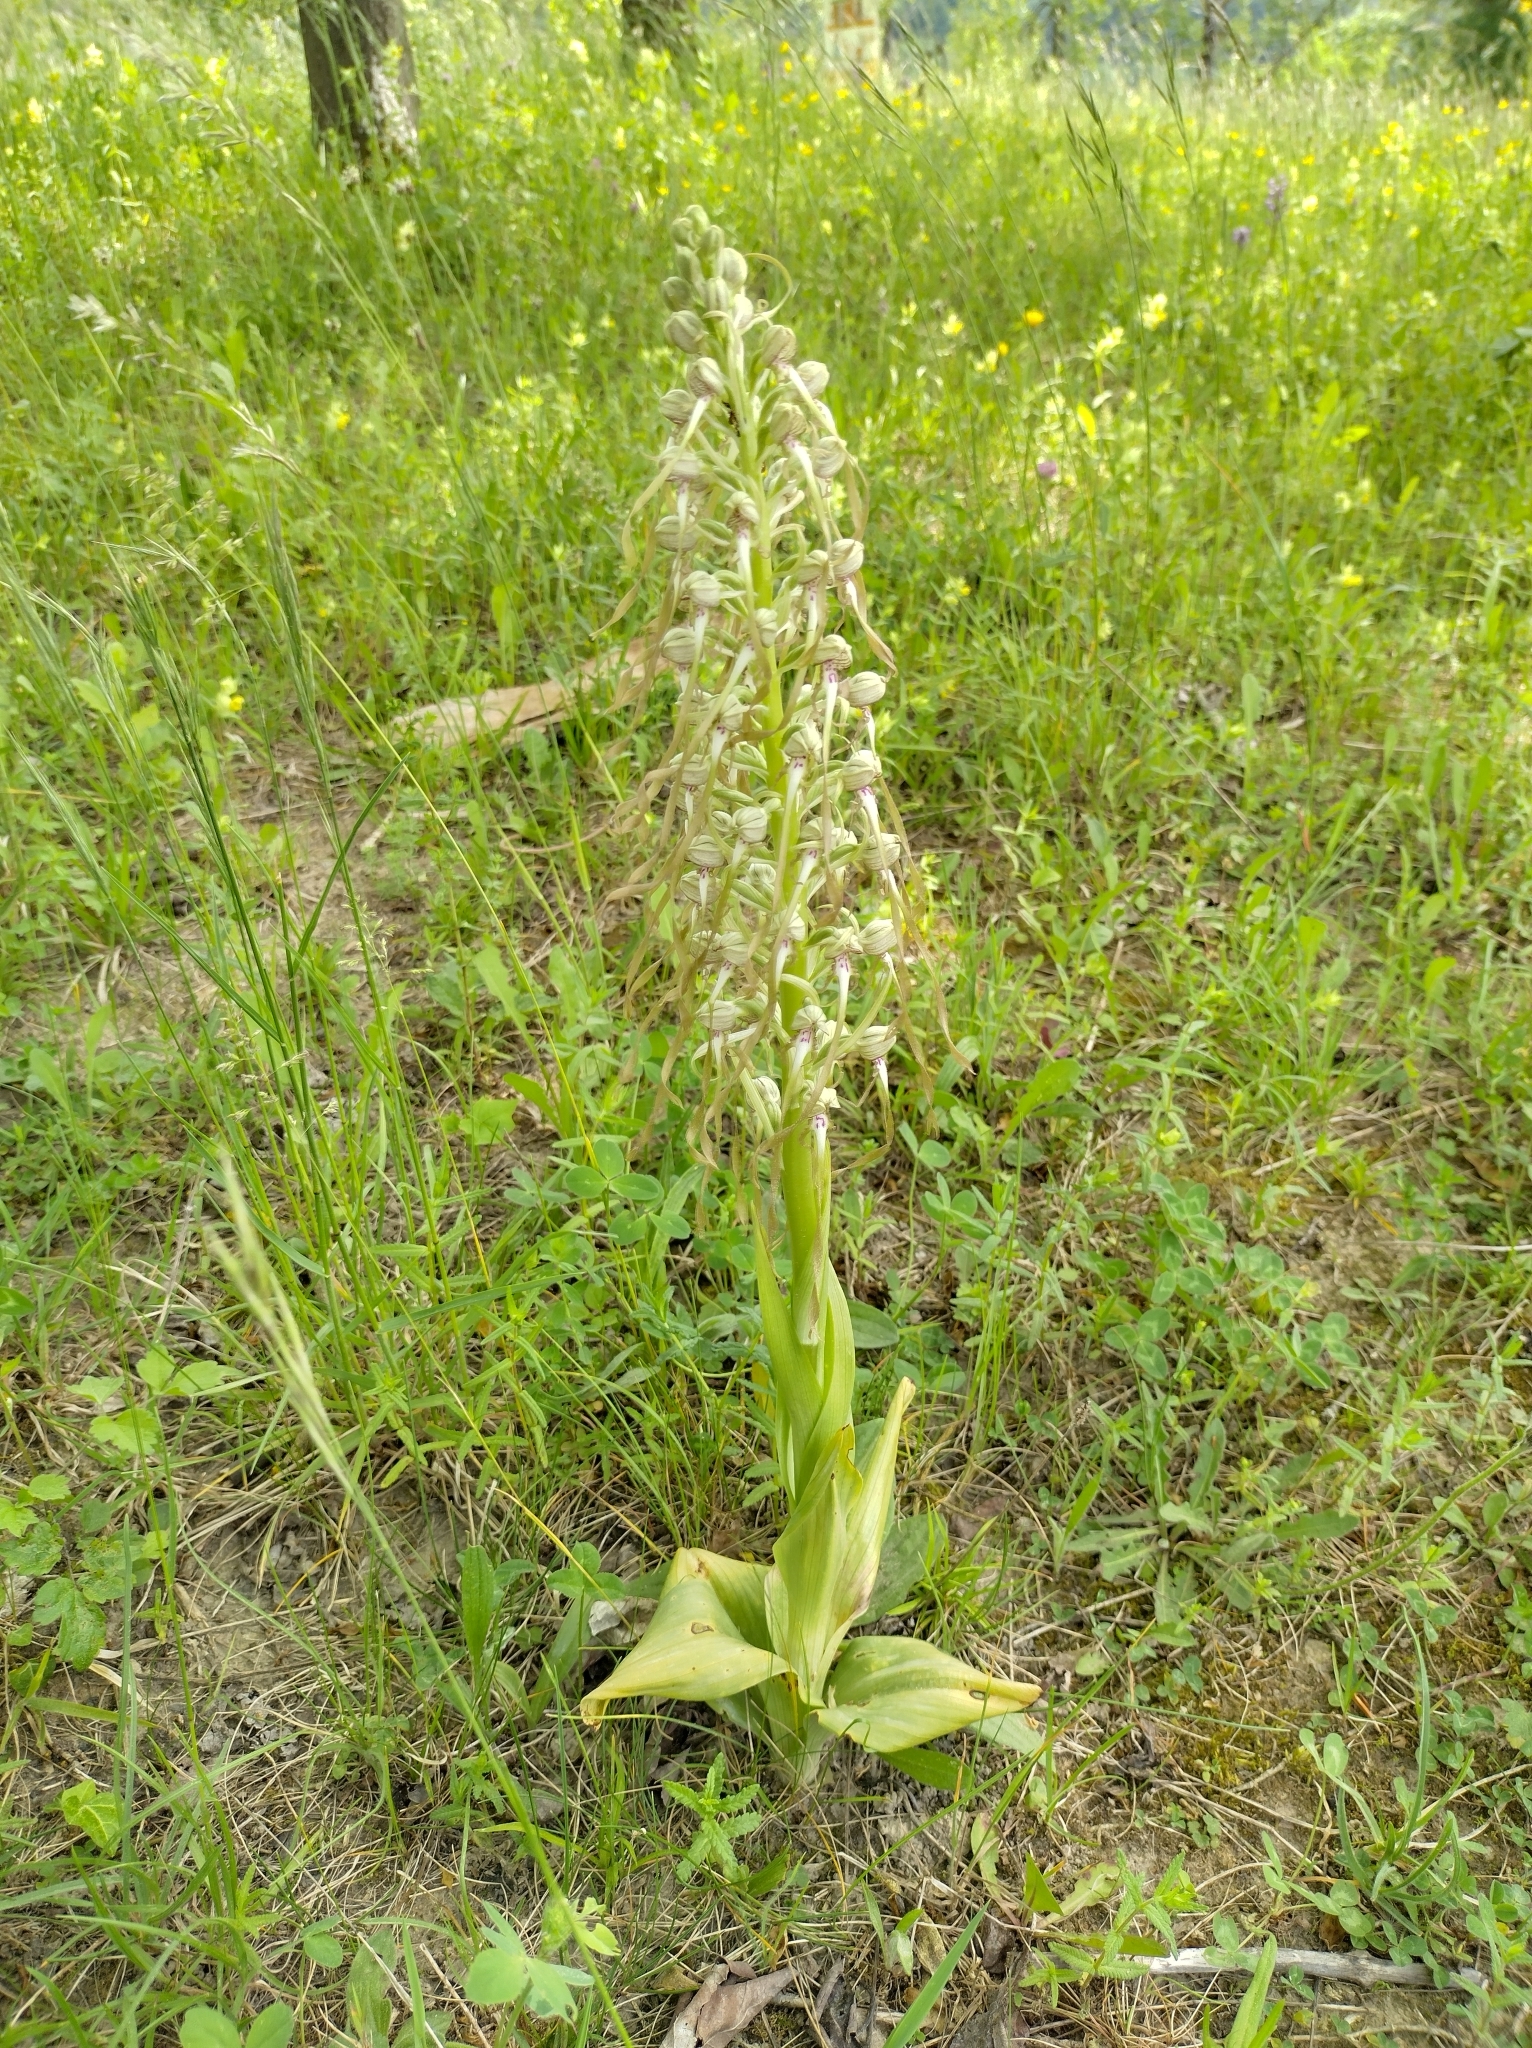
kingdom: Plantae
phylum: Tracheophyta
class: Liliopsida
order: Asparagales
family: Orchidaceae
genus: Himantoglossum
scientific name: Himantoglossum hircinum
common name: Lizard orchid
